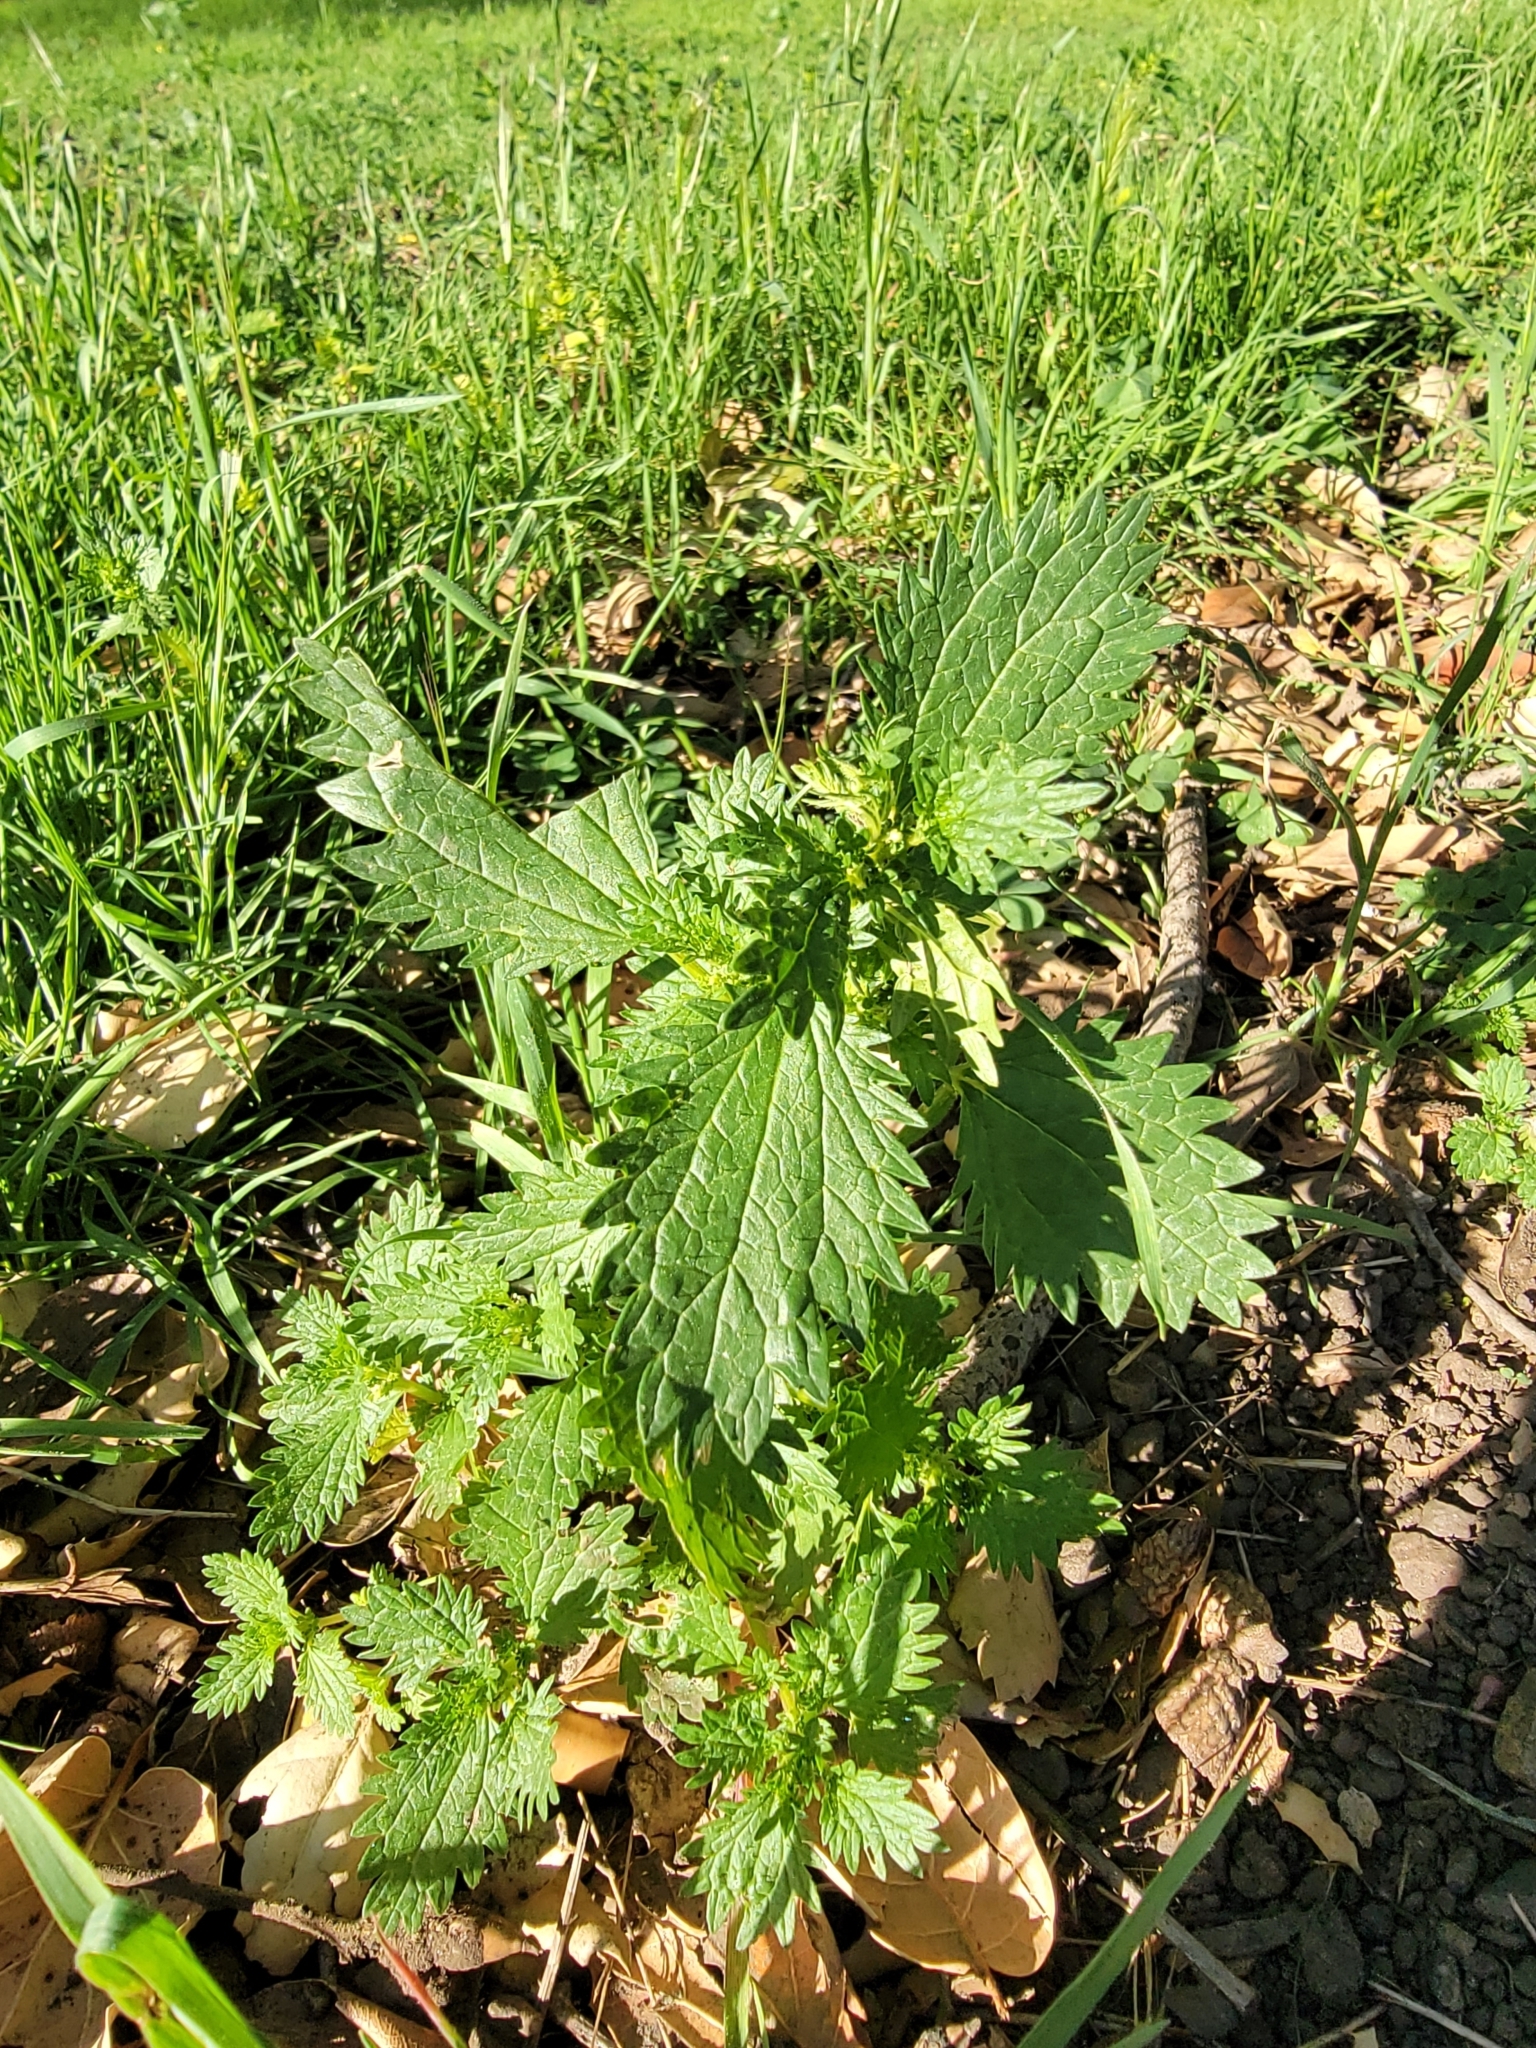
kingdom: Plantae
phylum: Tracheophyta
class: Magnoliopsida
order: Rosales
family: Urticaceae
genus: Urtica
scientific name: Urtica urens
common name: Dwarf nettle
